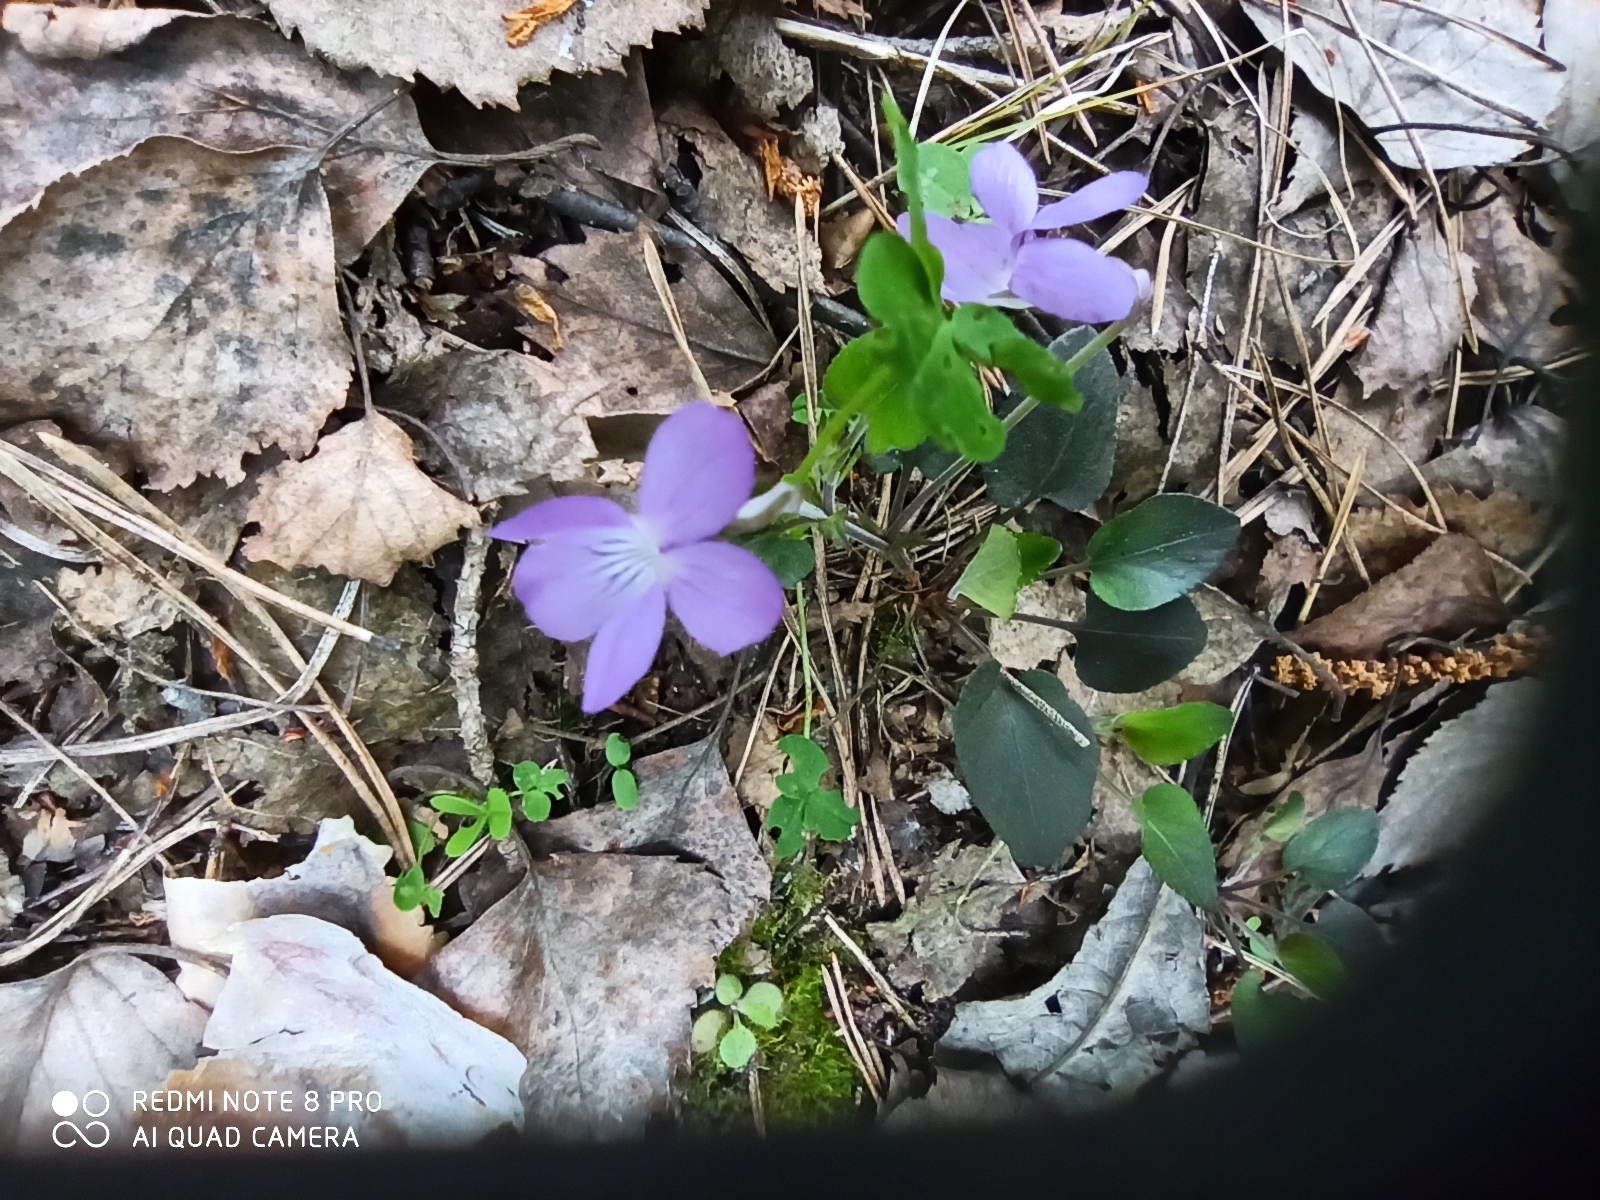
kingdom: Plantae
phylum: Tracheophyta
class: Magnoliopsida
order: Malpighiales
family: Violaceae
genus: Viola
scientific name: Viola rupestris
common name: Teesdale violet
